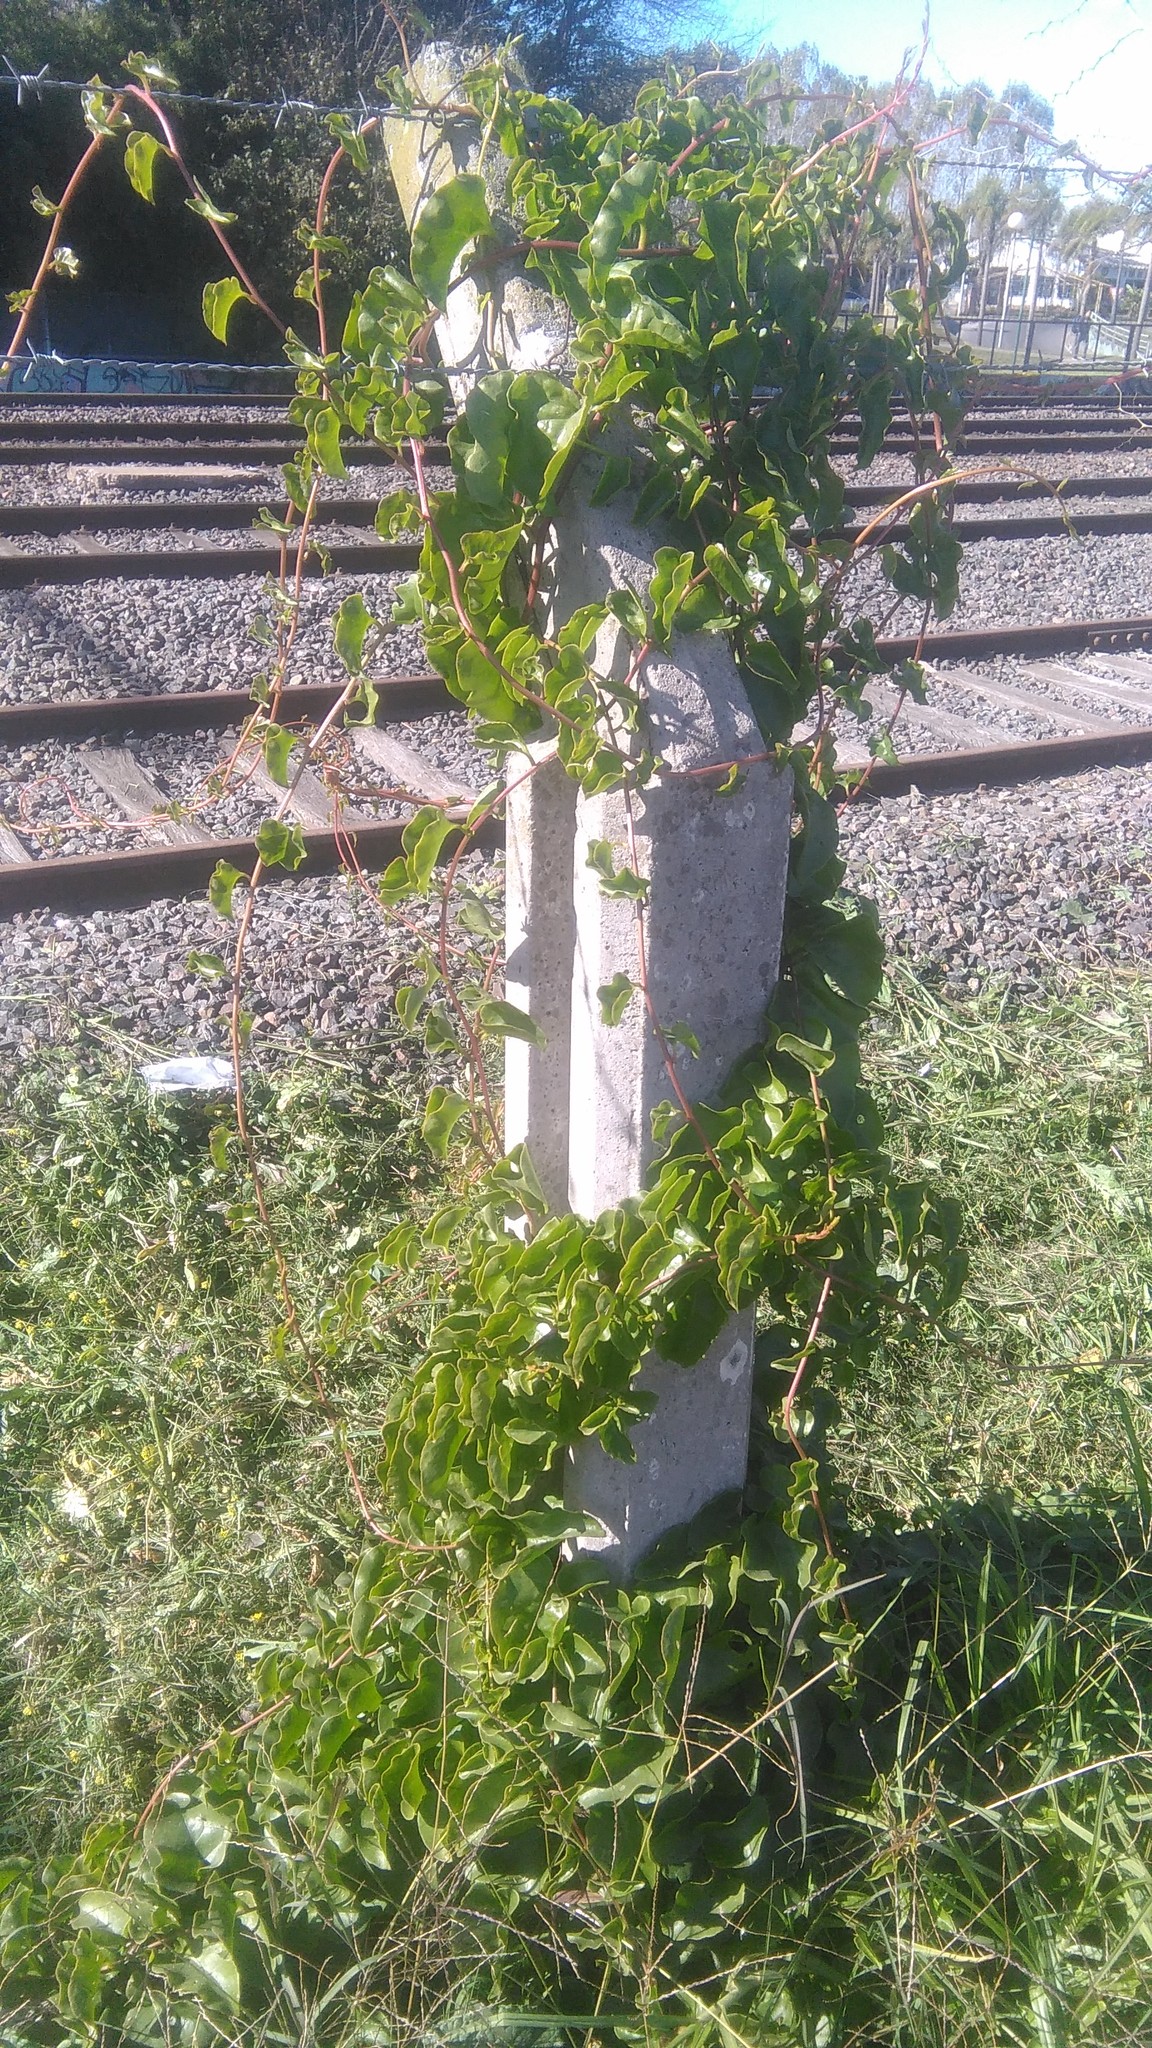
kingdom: Plantae
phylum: Tracheophyta
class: Magnoliopsida
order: Caryophyllales
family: Basellaceae
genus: Anredera
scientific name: Anredera cordifolia
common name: Heartleaf madeiravine
